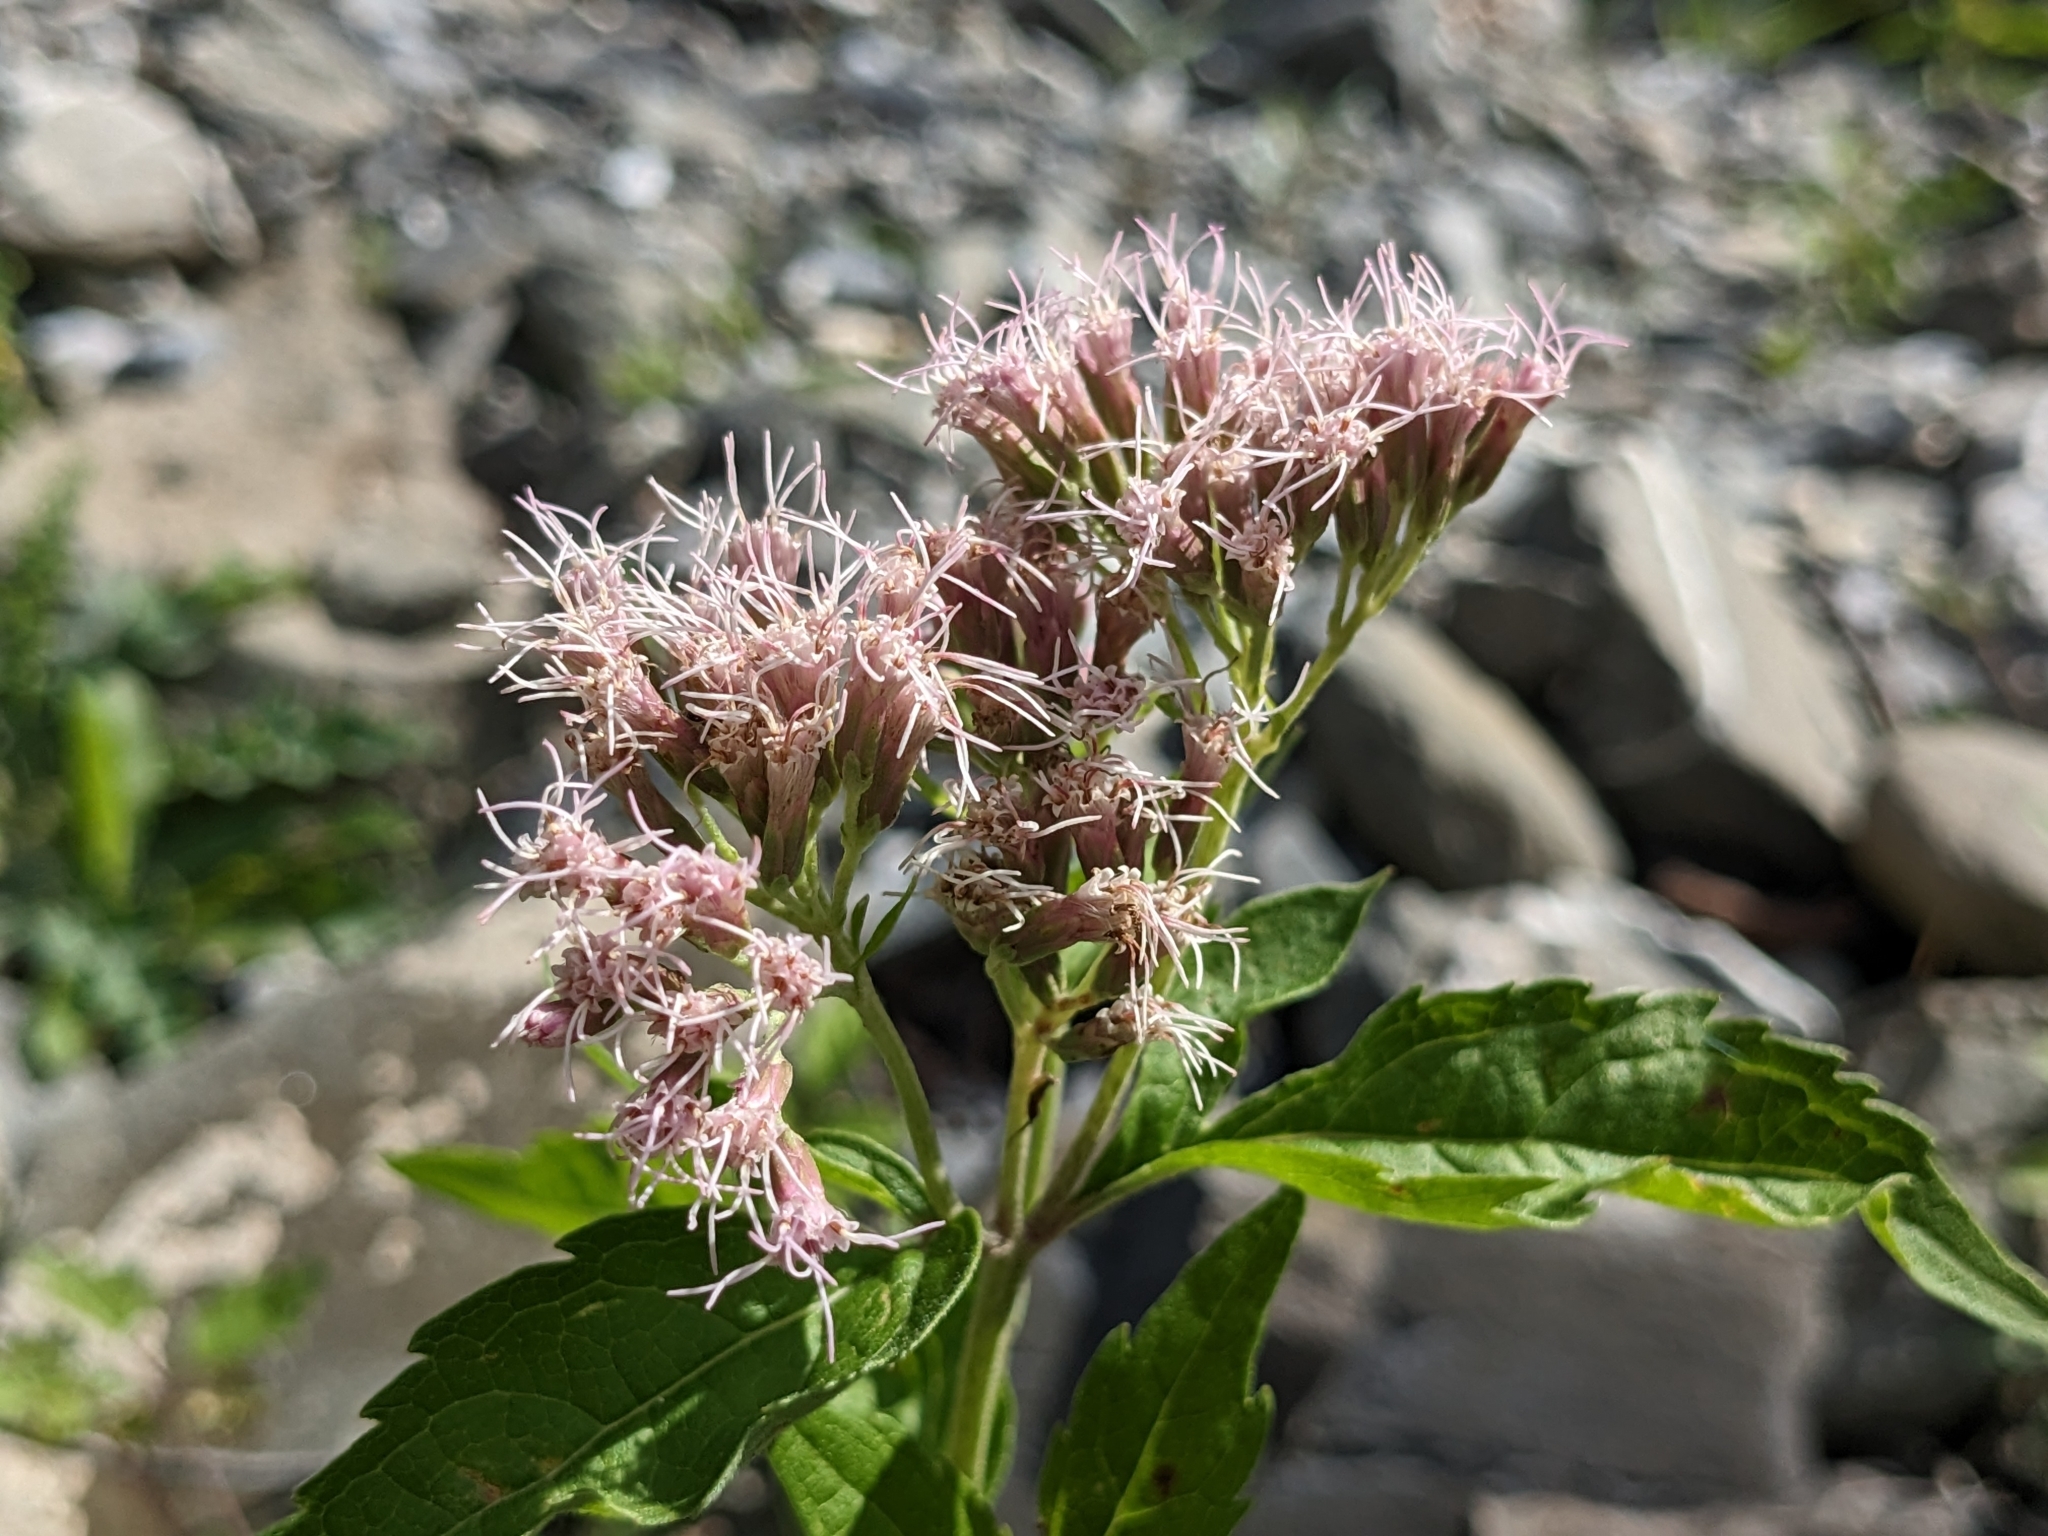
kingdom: Plantae
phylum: Tracheophyta
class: Magnoliopsida
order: Asterales
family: Asteraceae
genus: Eupatorium
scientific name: Eupatorium cannabinum
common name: Hemp-agrimony
